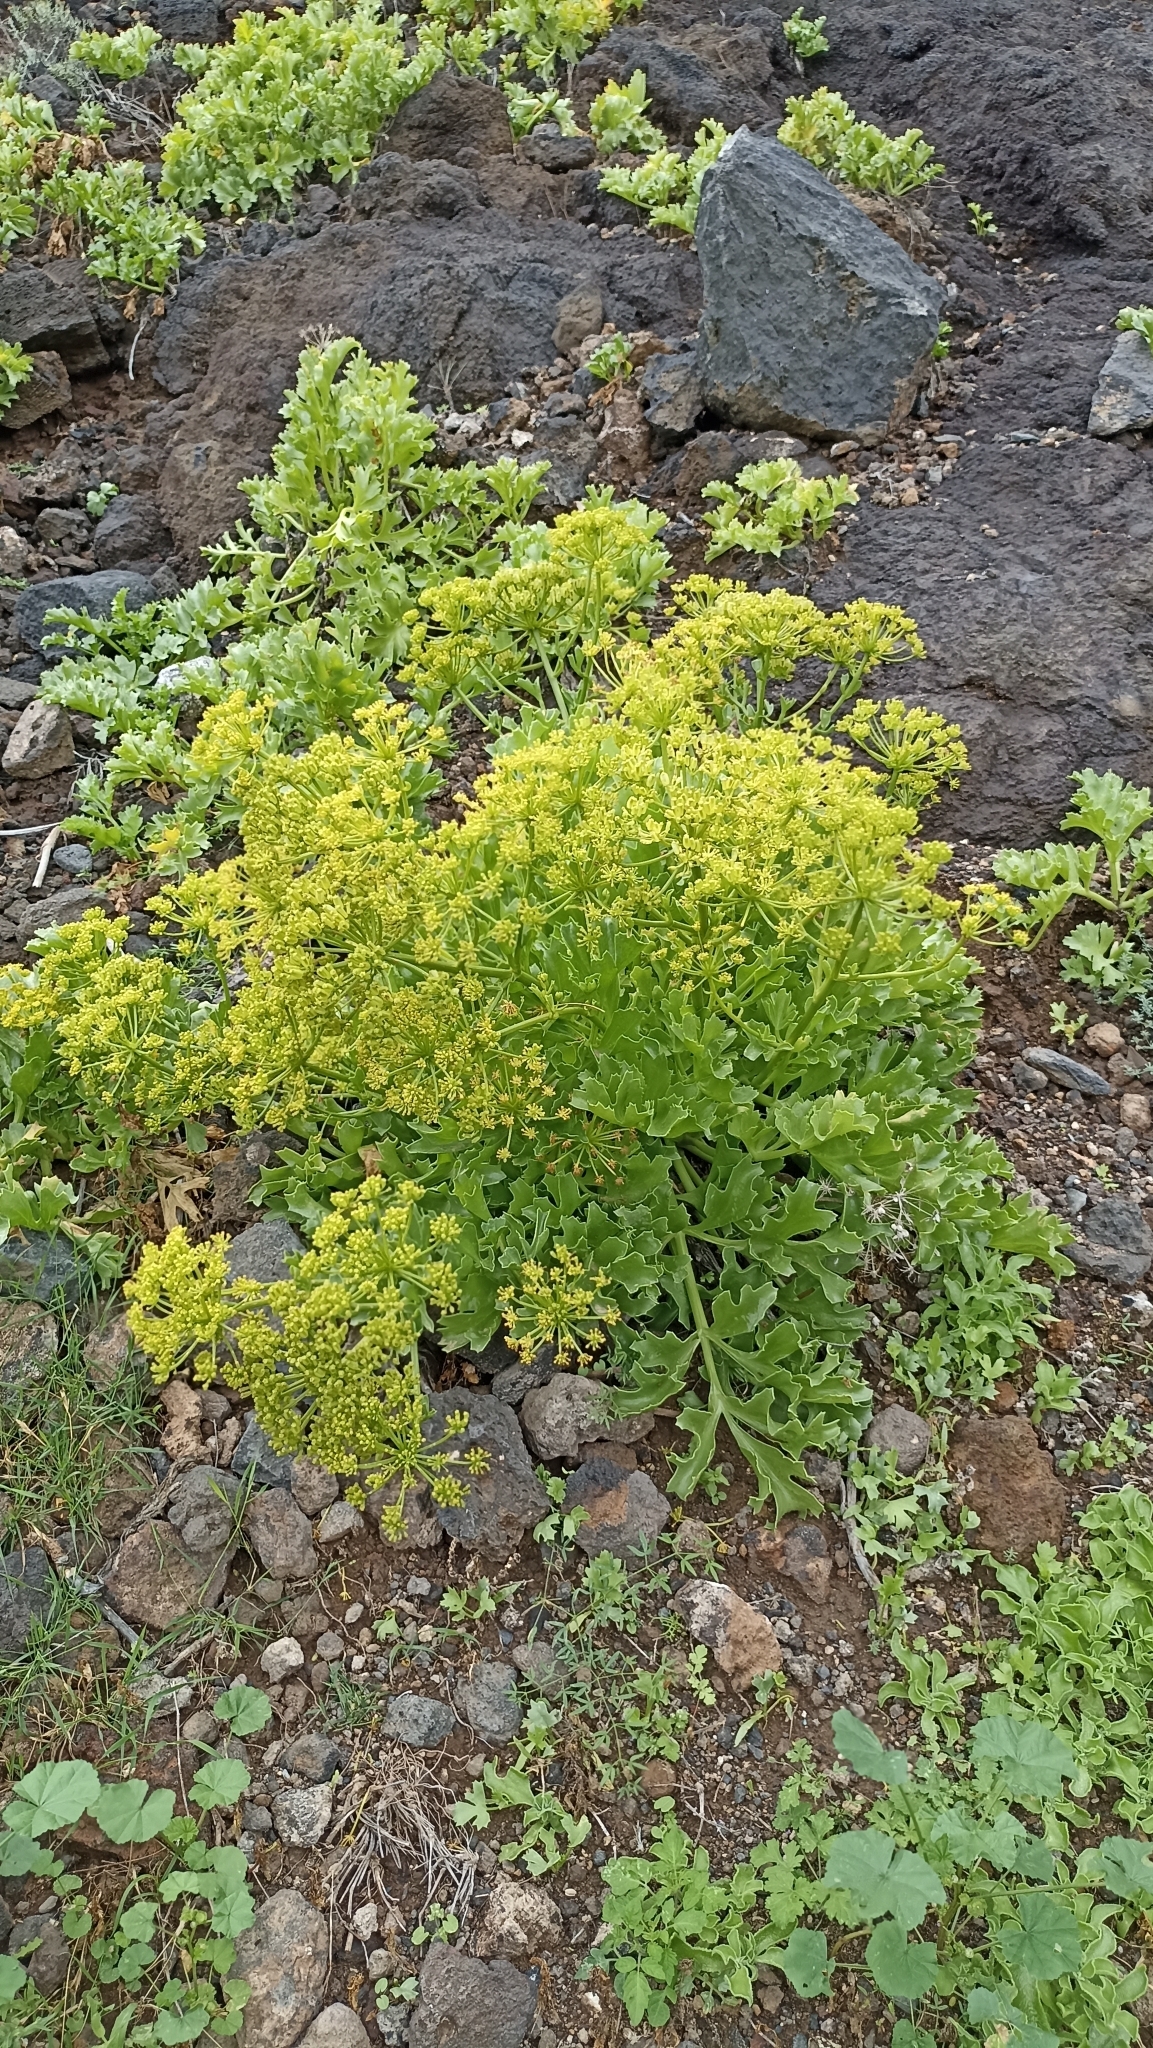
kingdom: Plantae
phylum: Tracheophyta
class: Magnoliopsida
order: Apiales
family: Apiaceae
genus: Astydamia
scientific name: Astydamia latifolia
